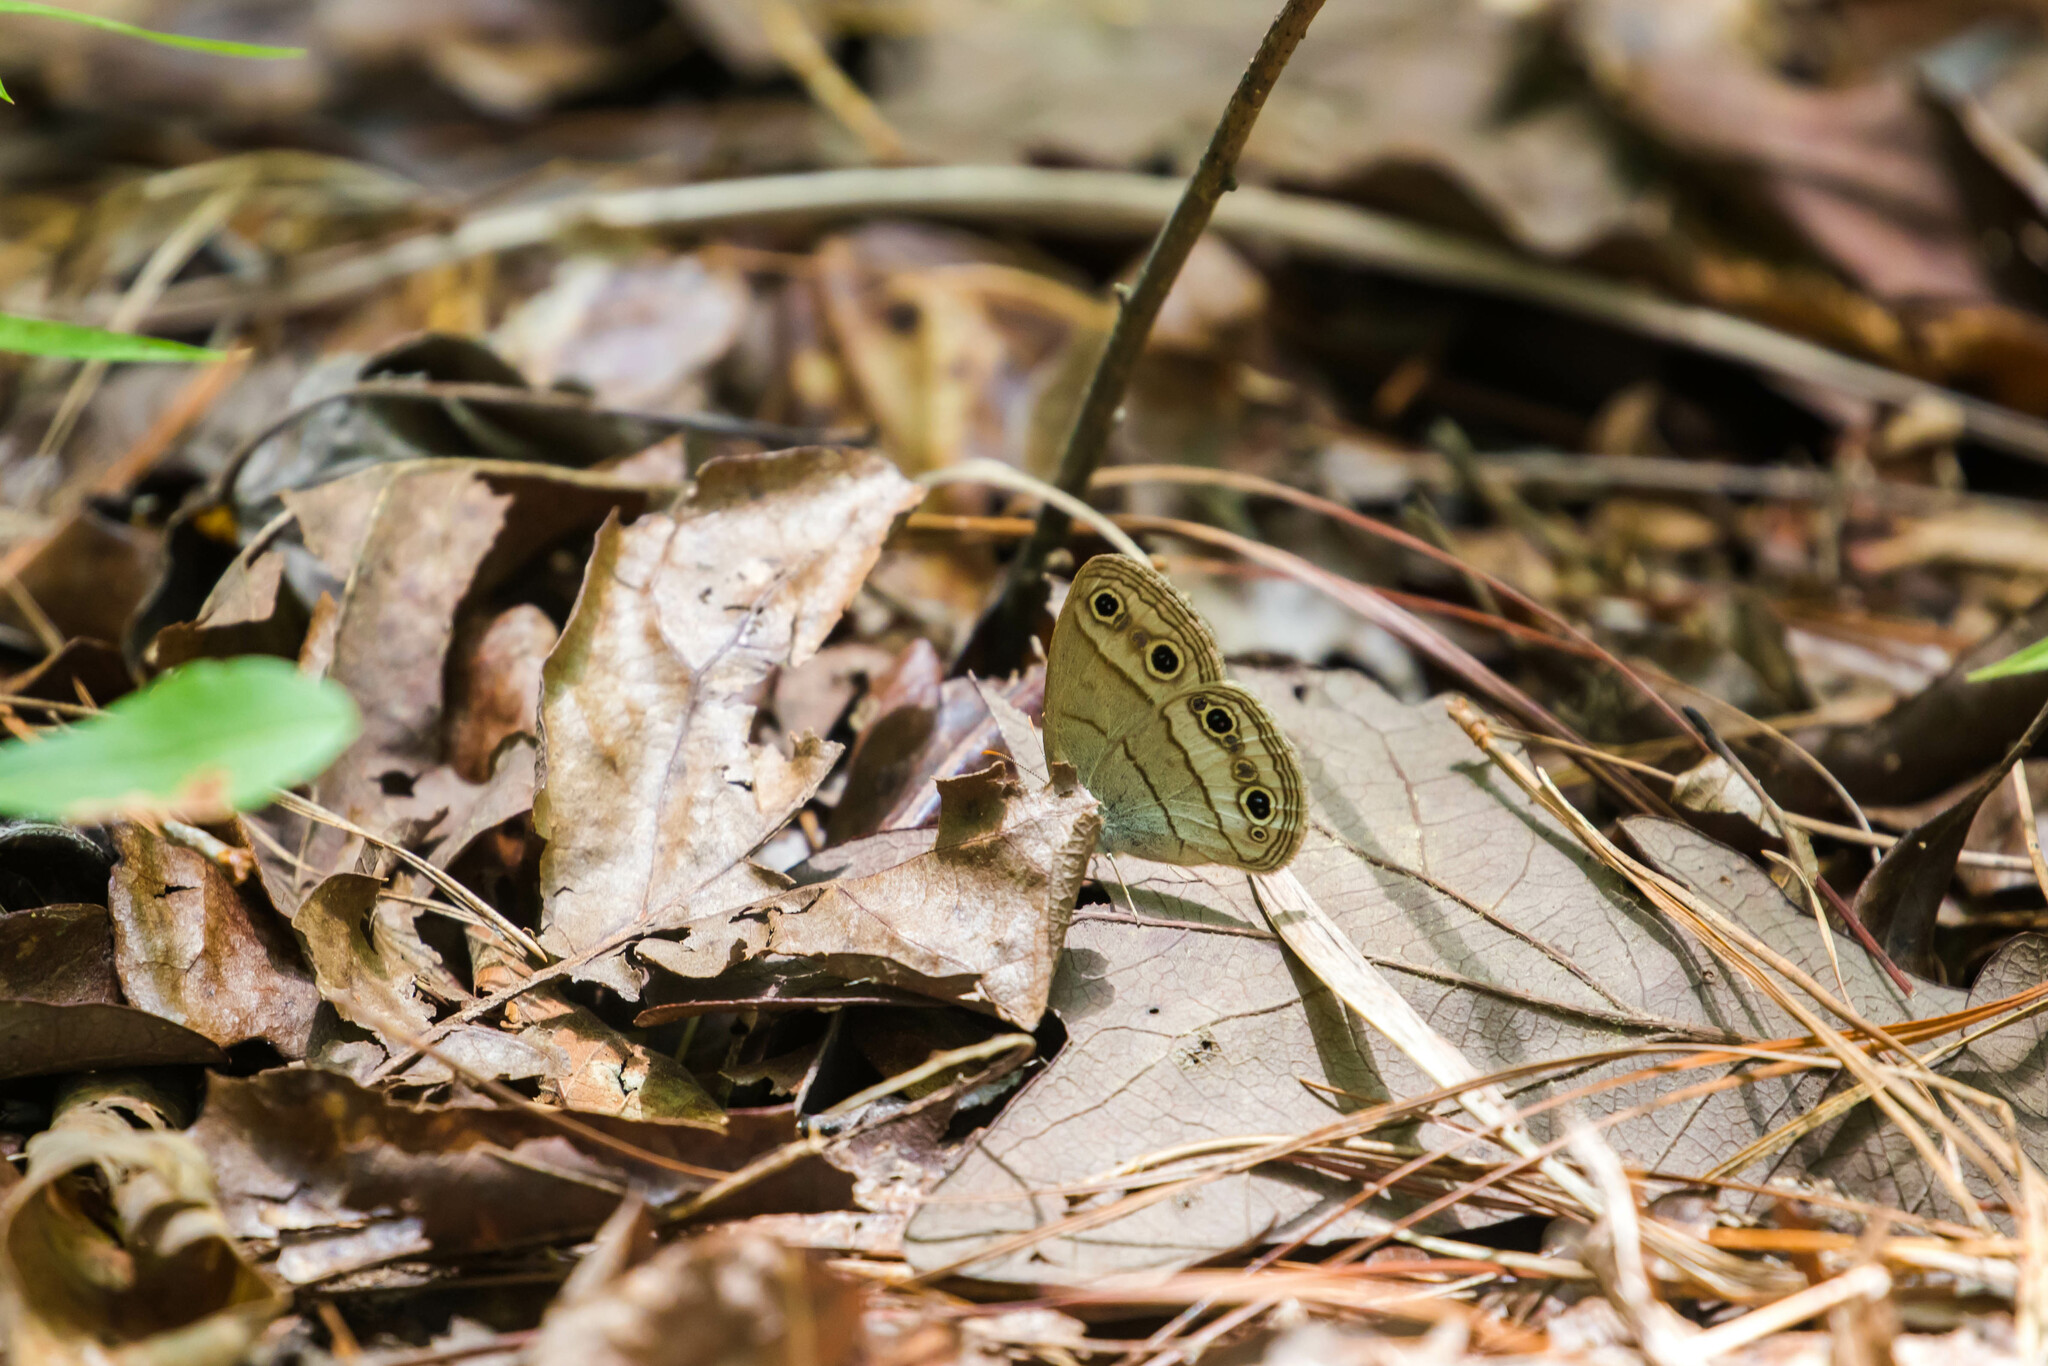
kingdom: Animalia
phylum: Arthropoda
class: Insecta
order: Lepidoptera
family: Nymphalidae
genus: Euptychia
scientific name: Euptychia cymela
